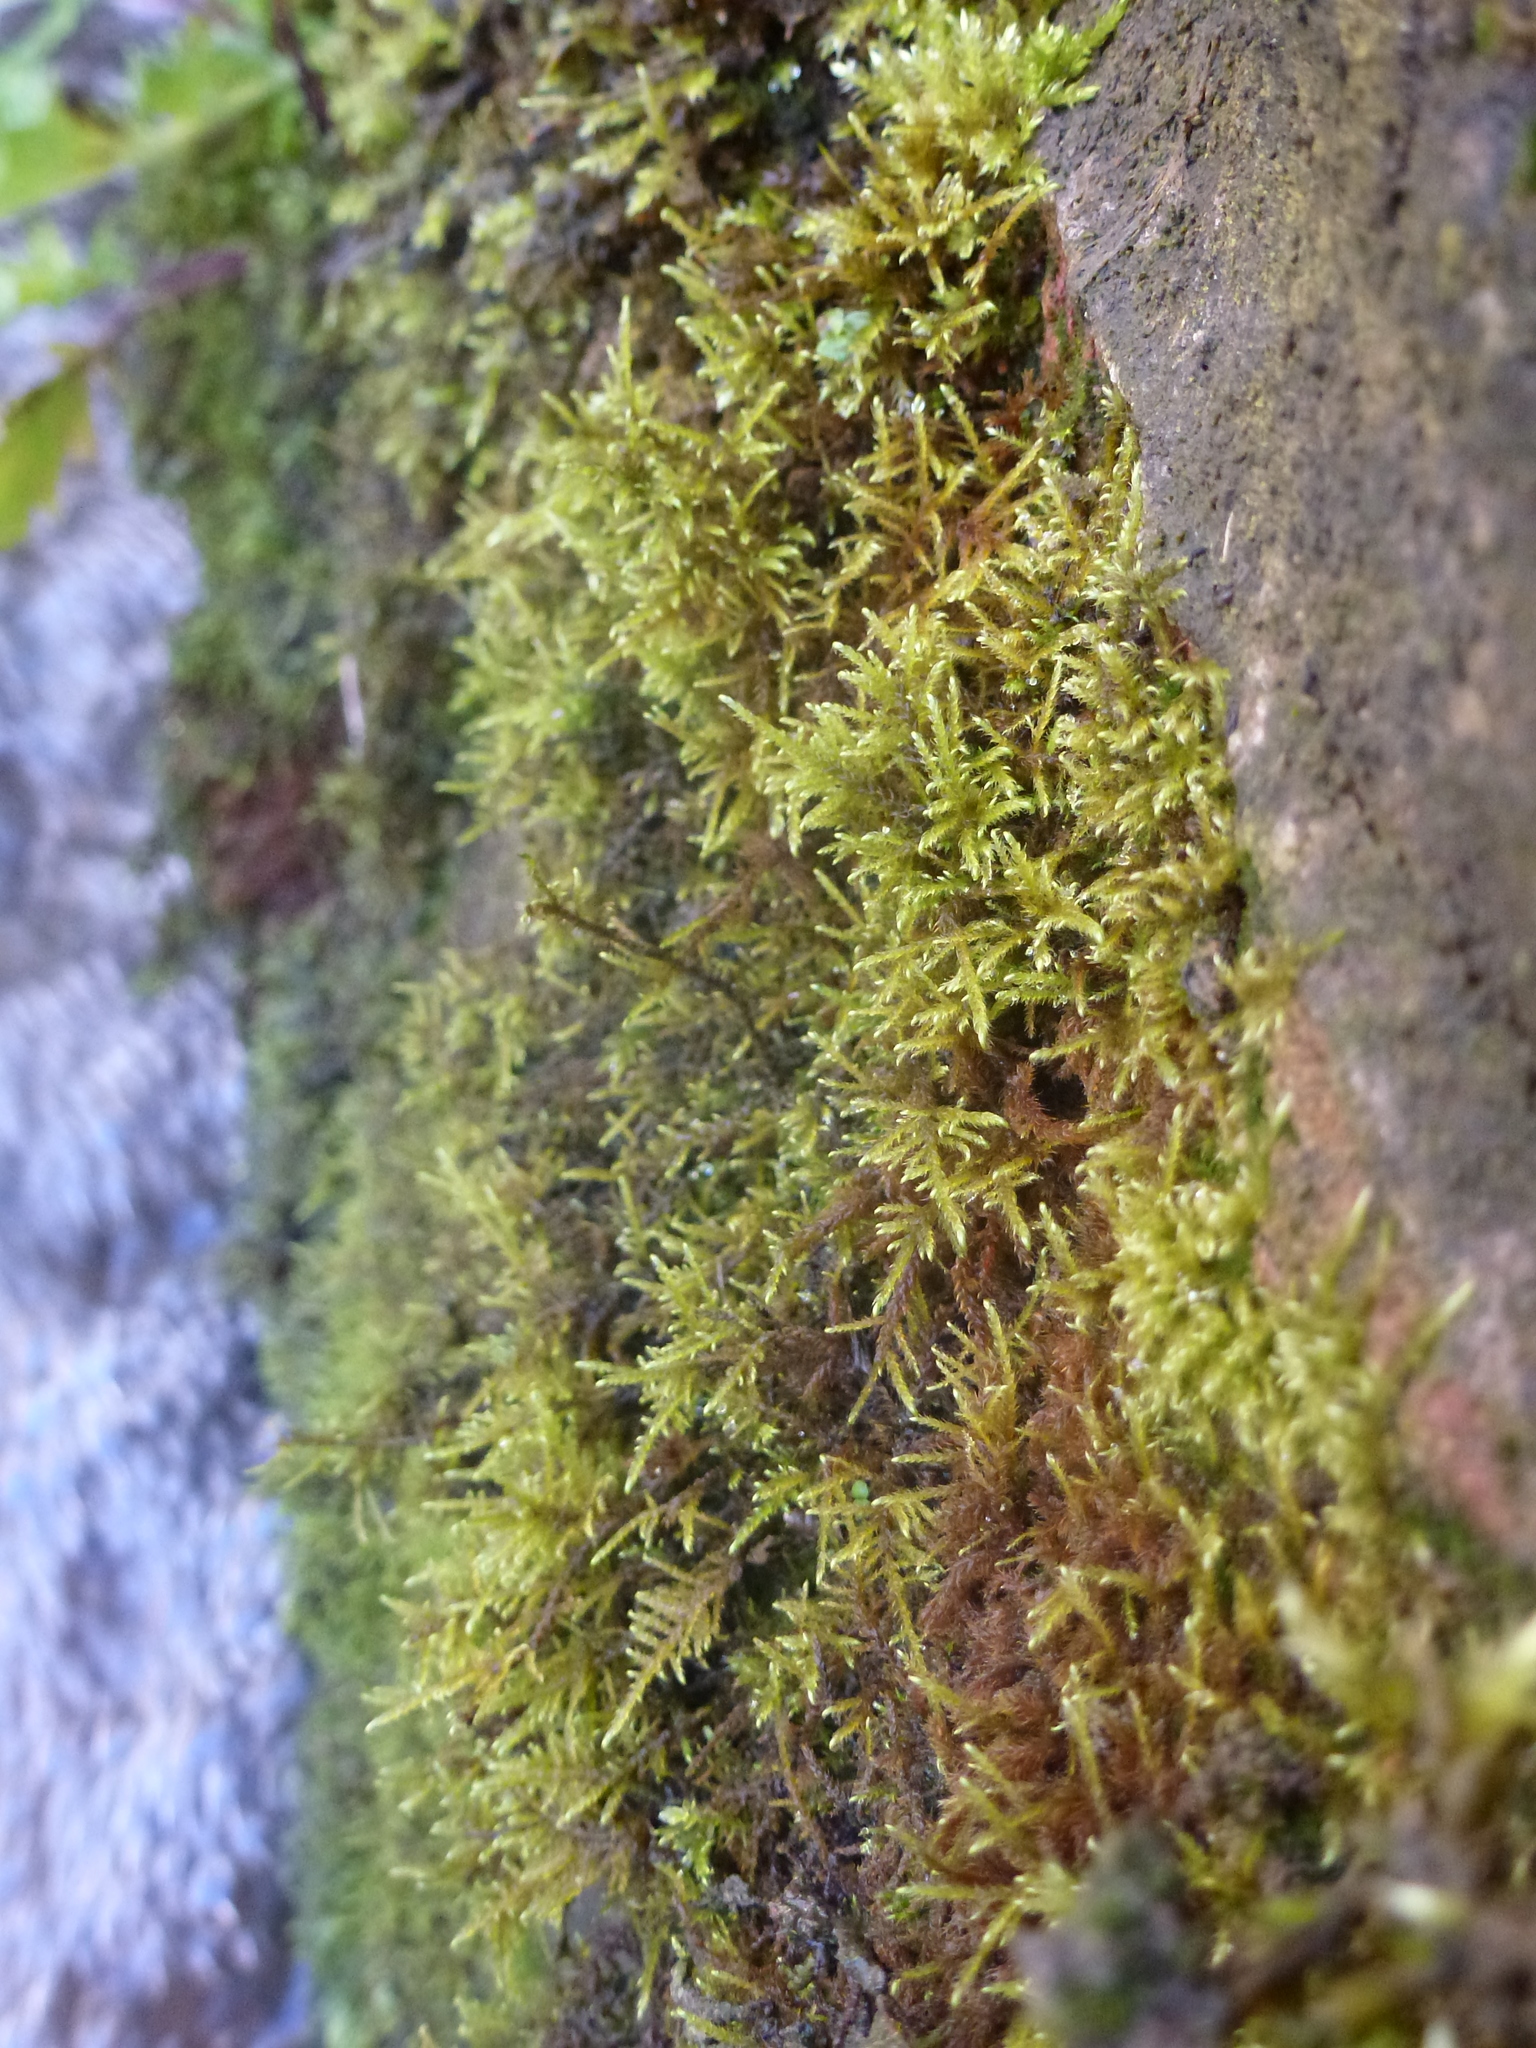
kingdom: Plantae
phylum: Bryophyta
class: Bryopsida
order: Hypnales
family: Amblystegiaceae
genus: Cratoneuron
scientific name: Cratoneuron filicinum
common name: Fern-leaved hook moss
